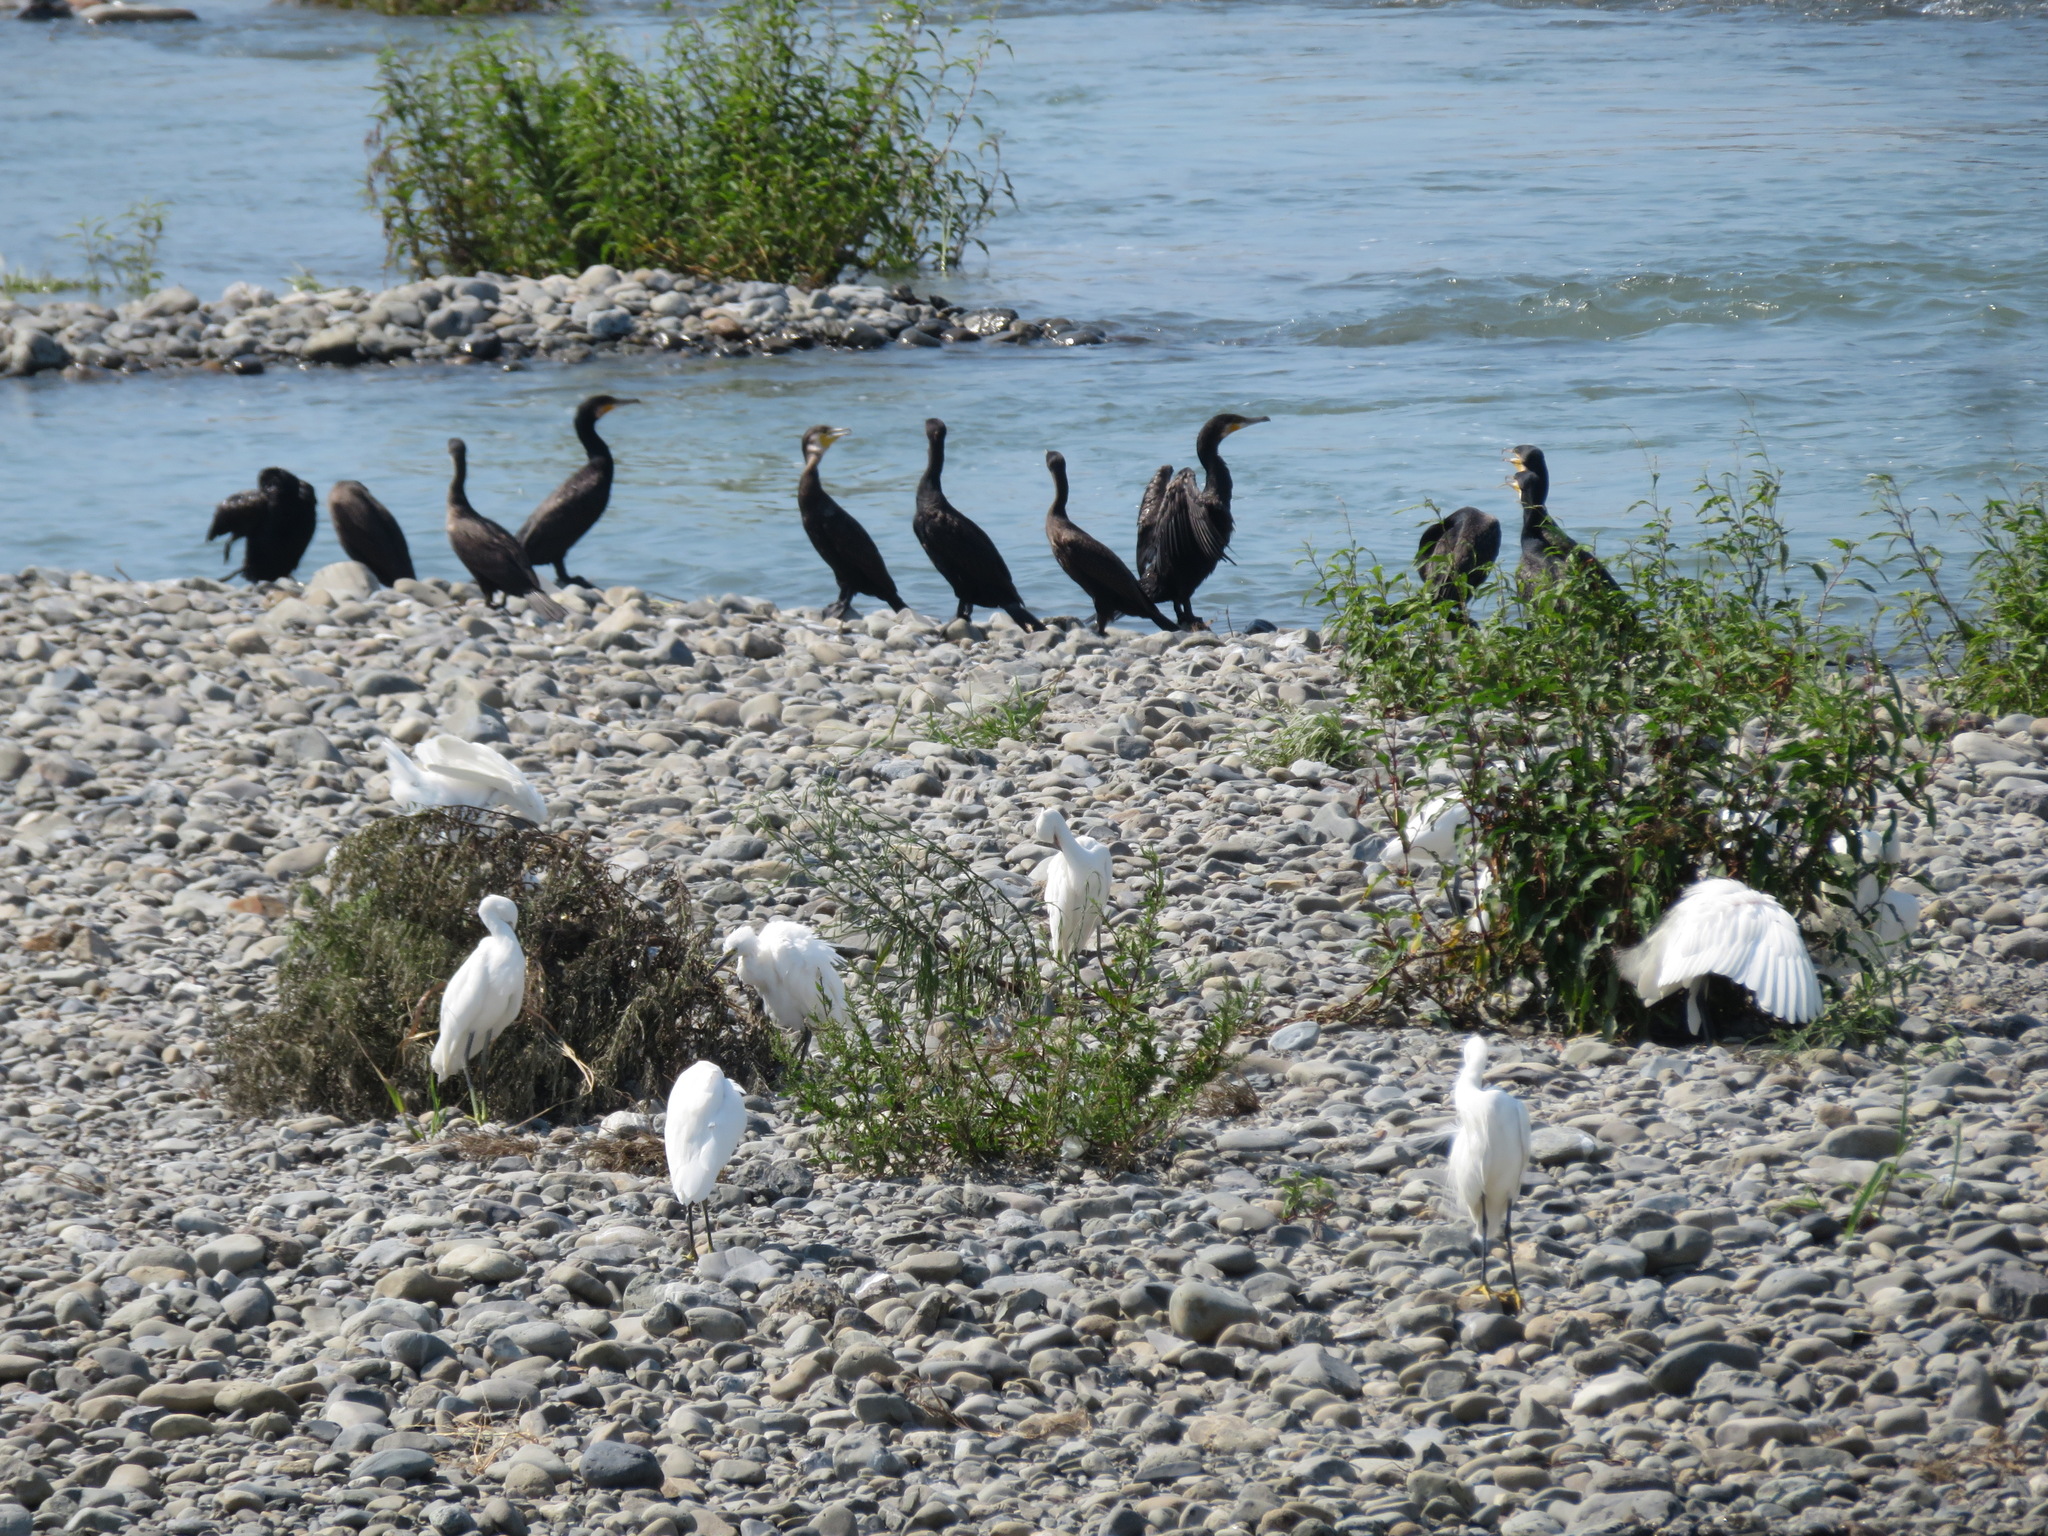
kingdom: Animalia
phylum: Chordata
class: Aves
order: Suliformes
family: Phalacrocoracidae
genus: Phalacrocorax
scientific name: Phalacrocorax carbo
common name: Great cormorant
